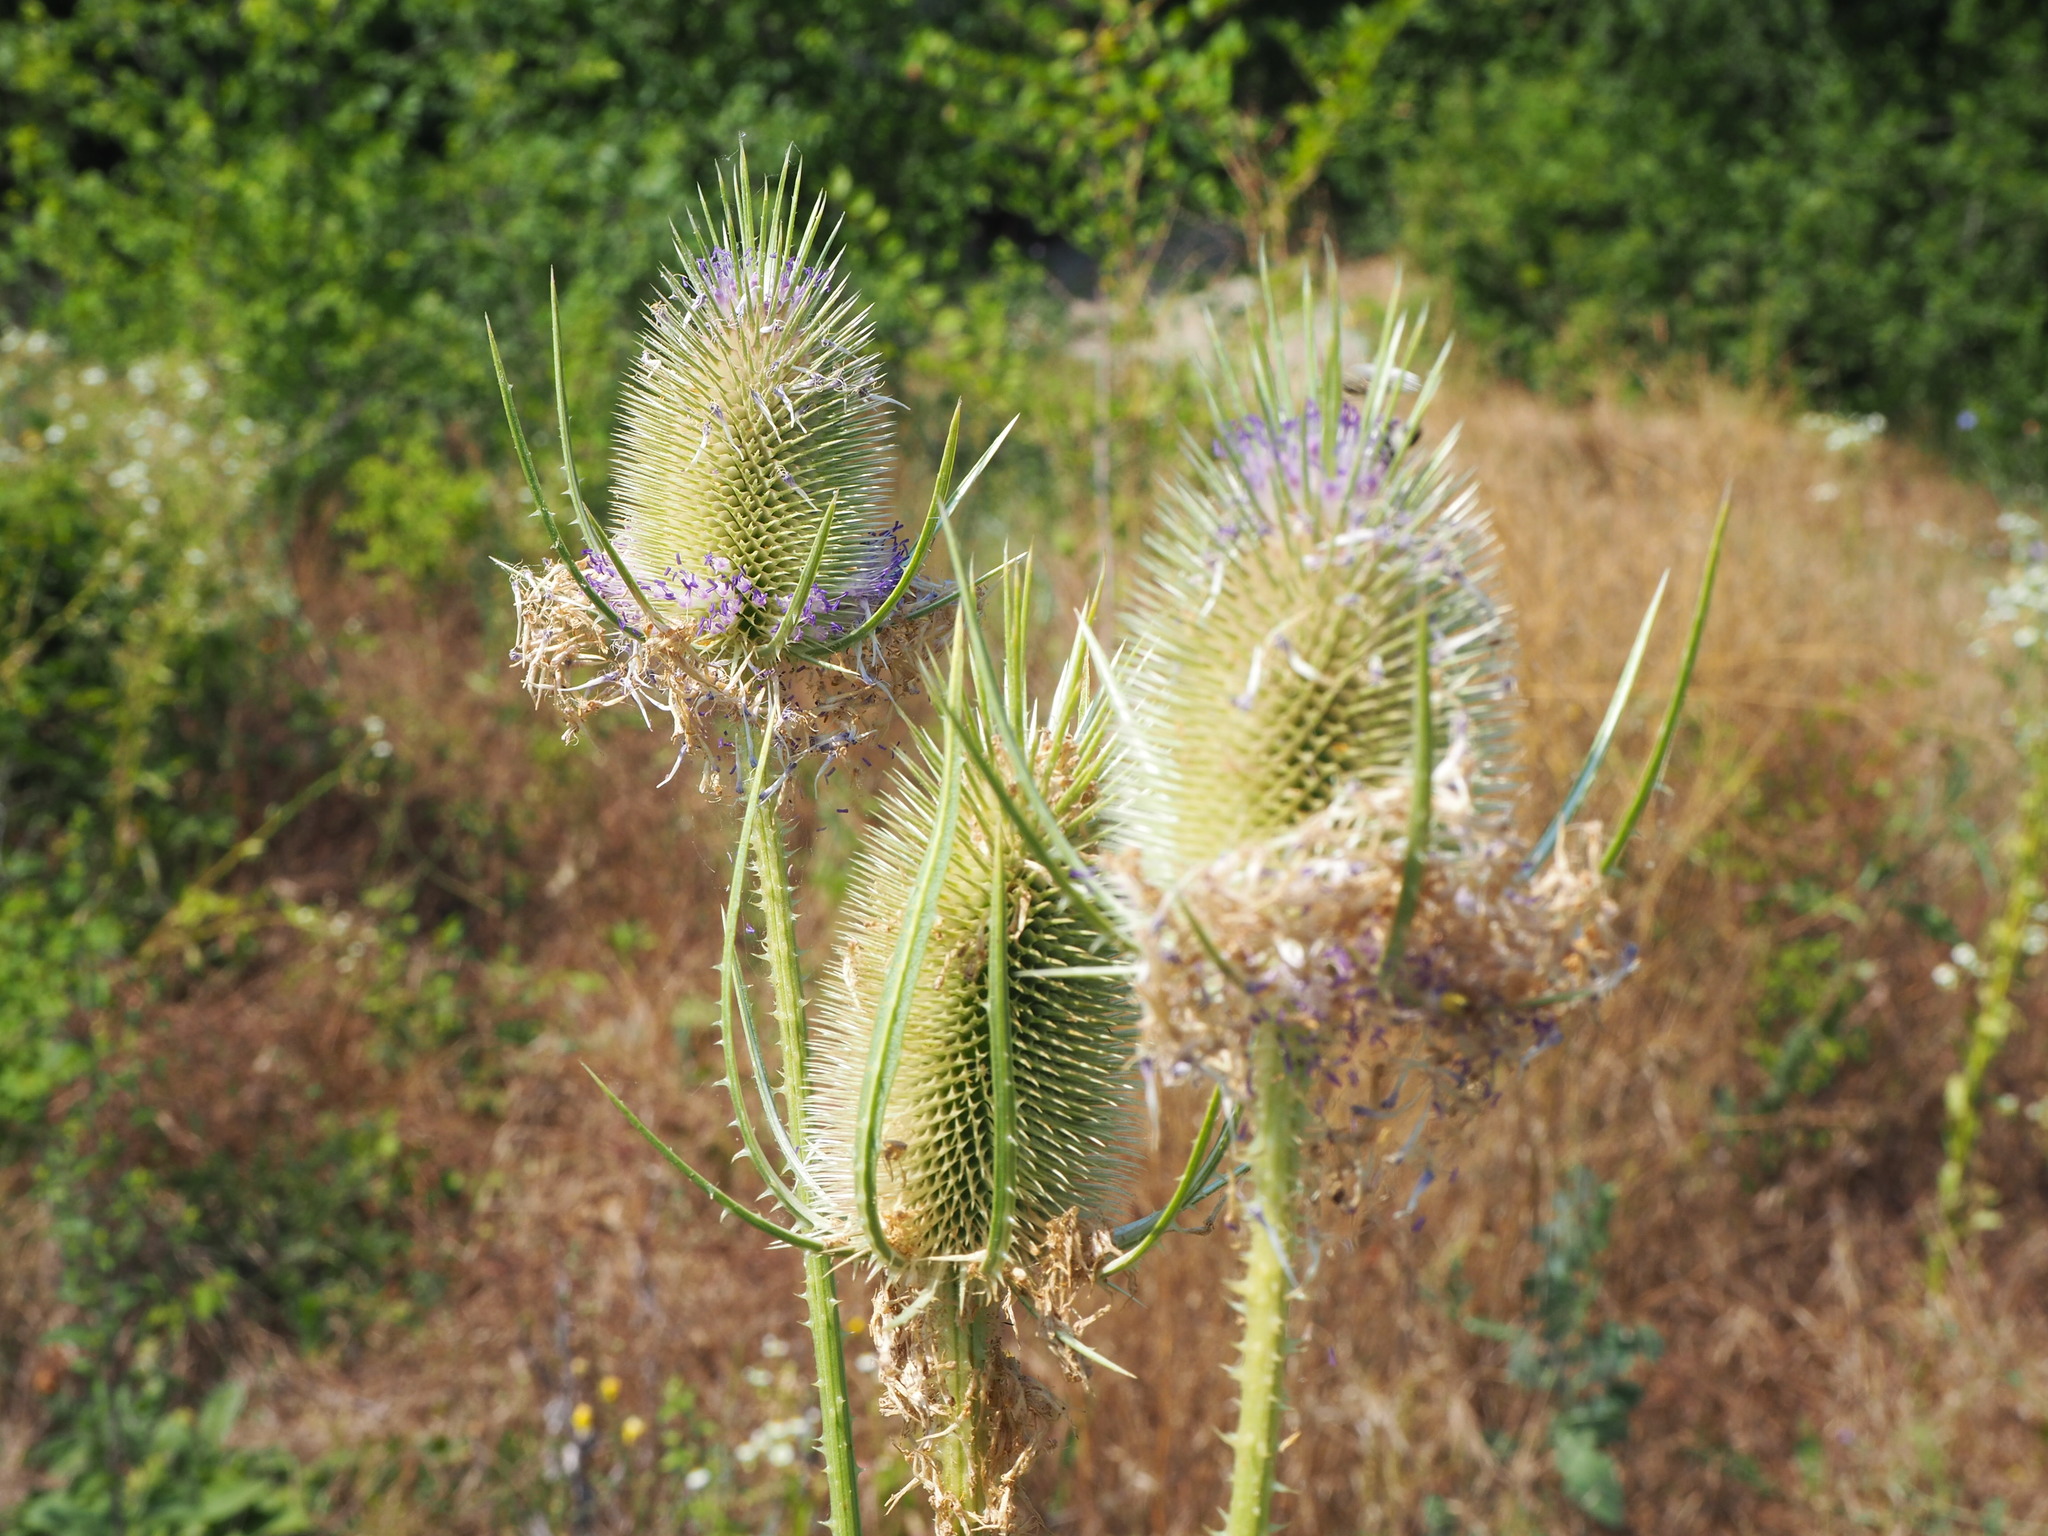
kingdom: Plantae
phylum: Tracheophyta
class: Magnoliopsida
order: Dipsacales
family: Caprifoliaceae
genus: Dipsacus
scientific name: Dipsacus fullonum
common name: Teasel
